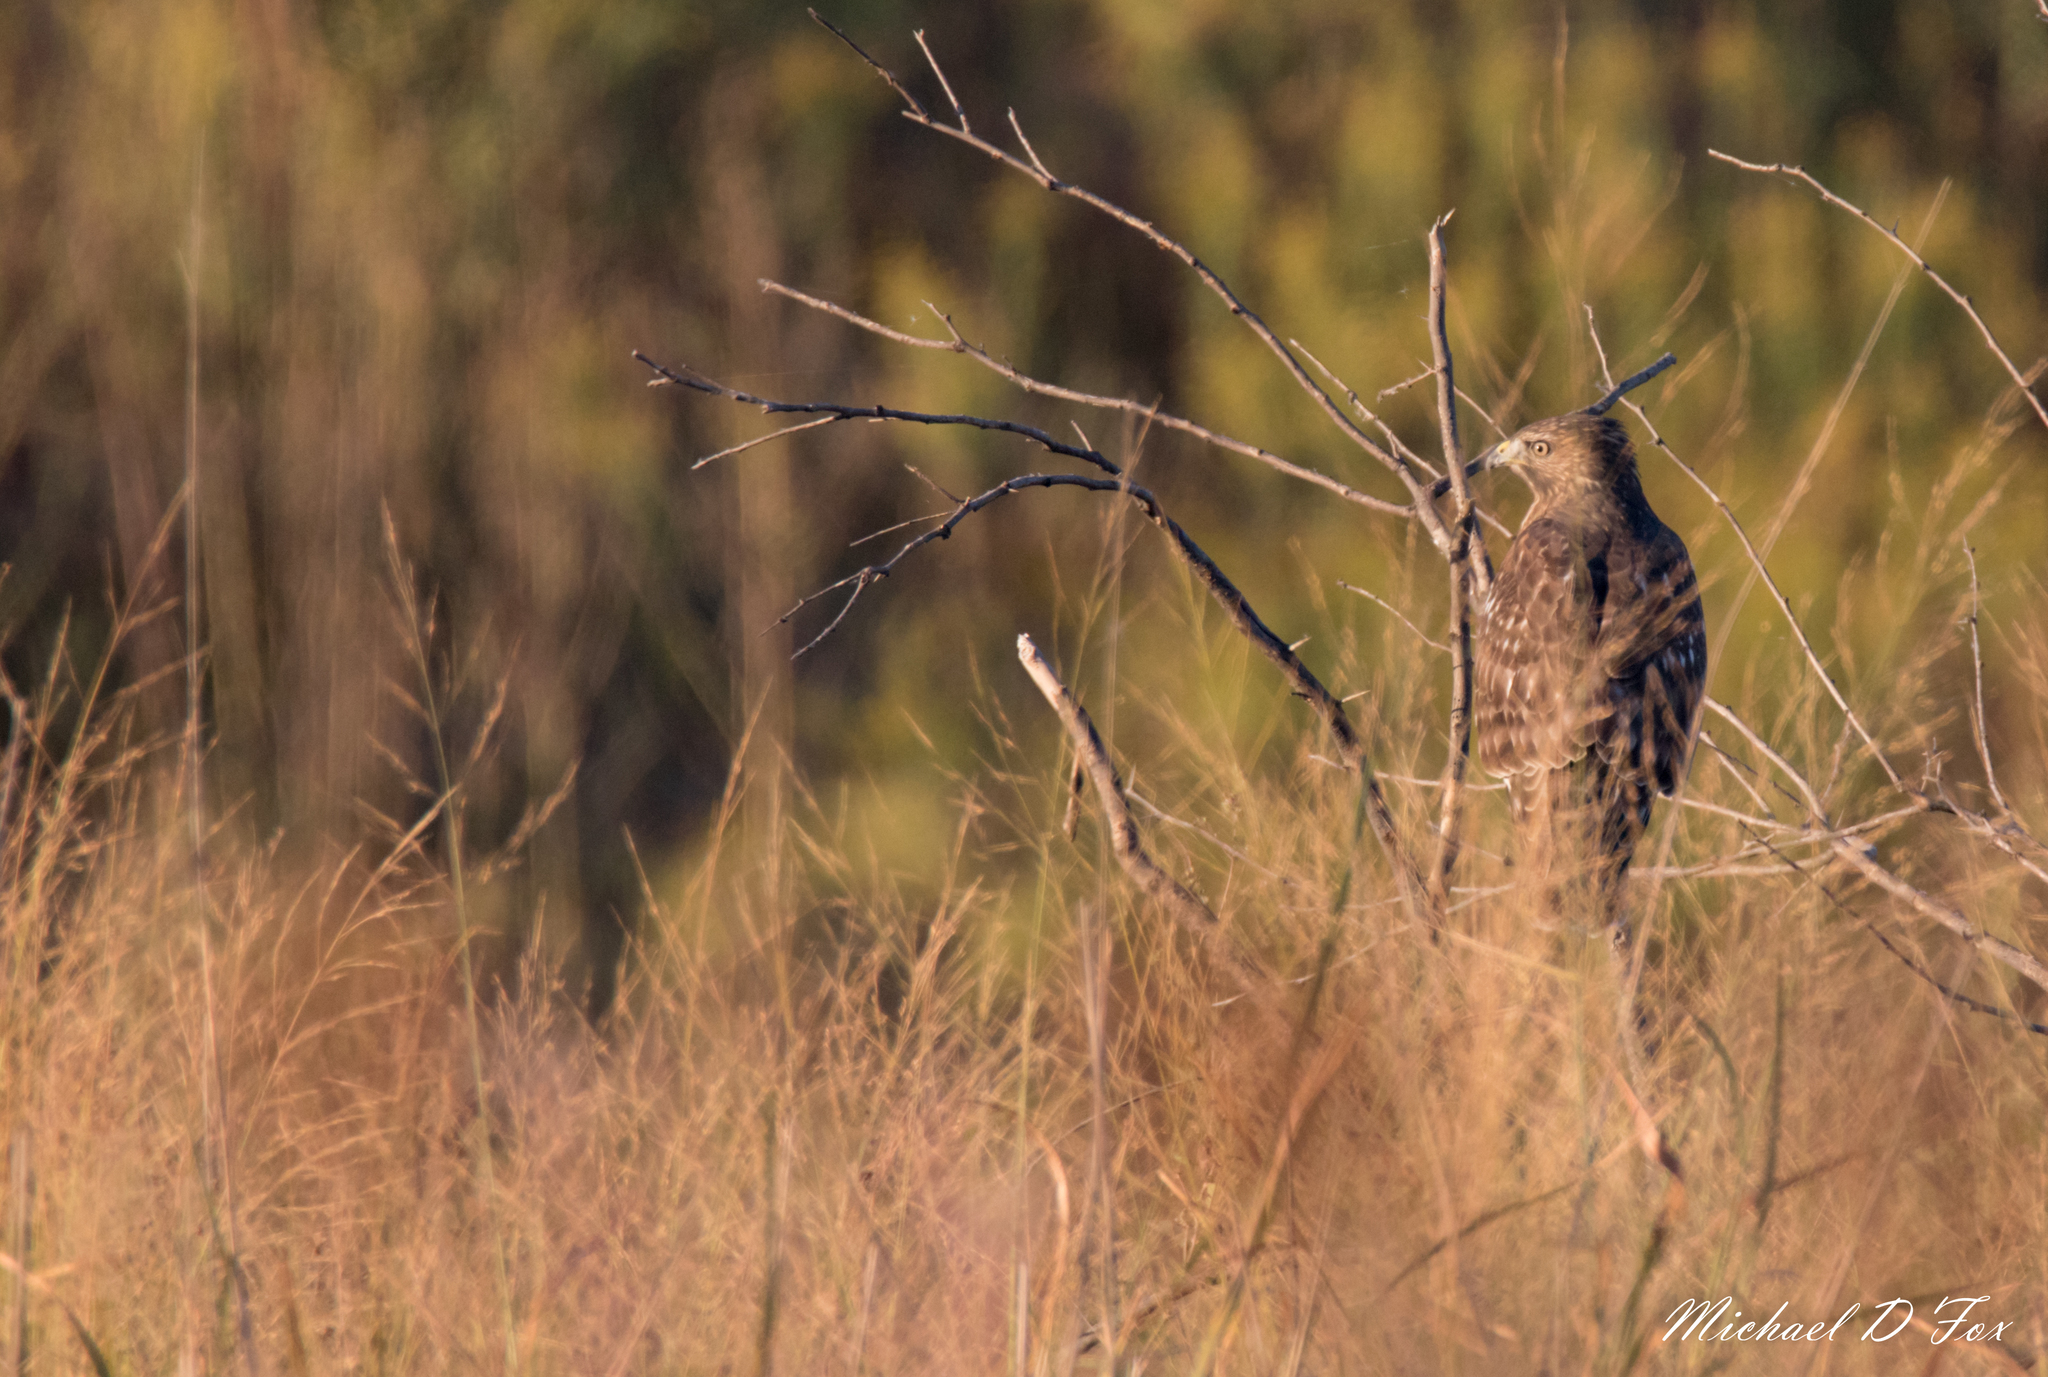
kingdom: Animalia
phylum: Chordata
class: Aves
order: Accipitriformes
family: Accipitridae
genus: Buteo
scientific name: Buteo jamaicensis
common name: Red-tailed hawk
